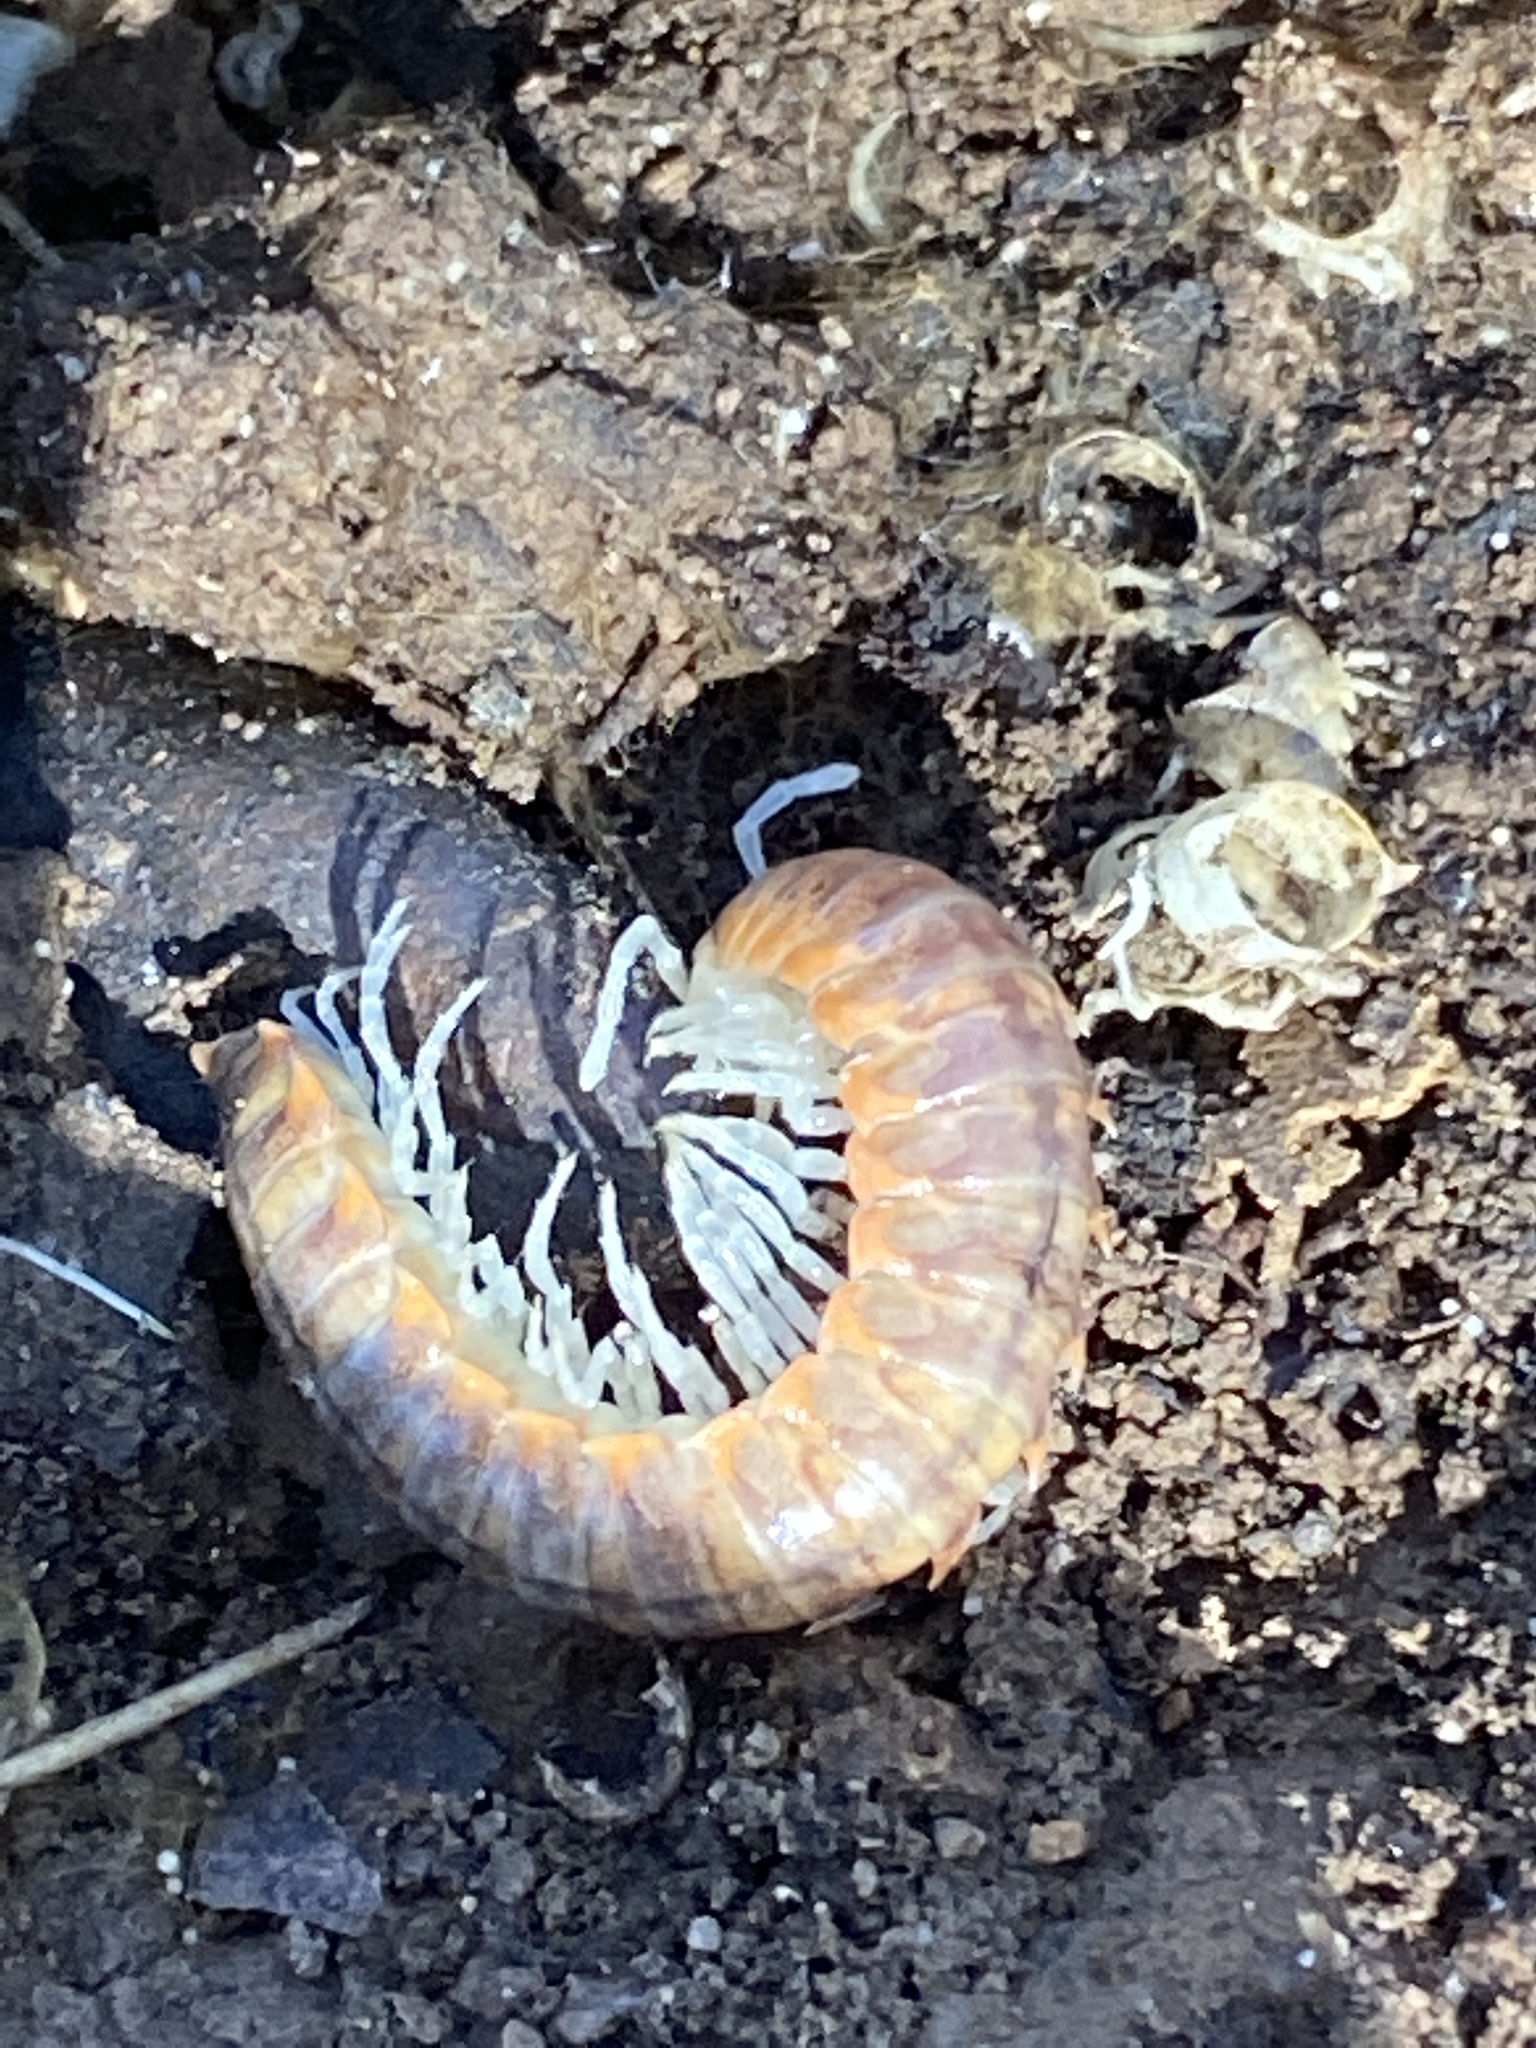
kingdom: Animalia
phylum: Arthropoda
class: Diplopoda
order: Polydesmida
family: Xystodesmidae
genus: Xystocheir
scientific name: Xystocheir dissecta
